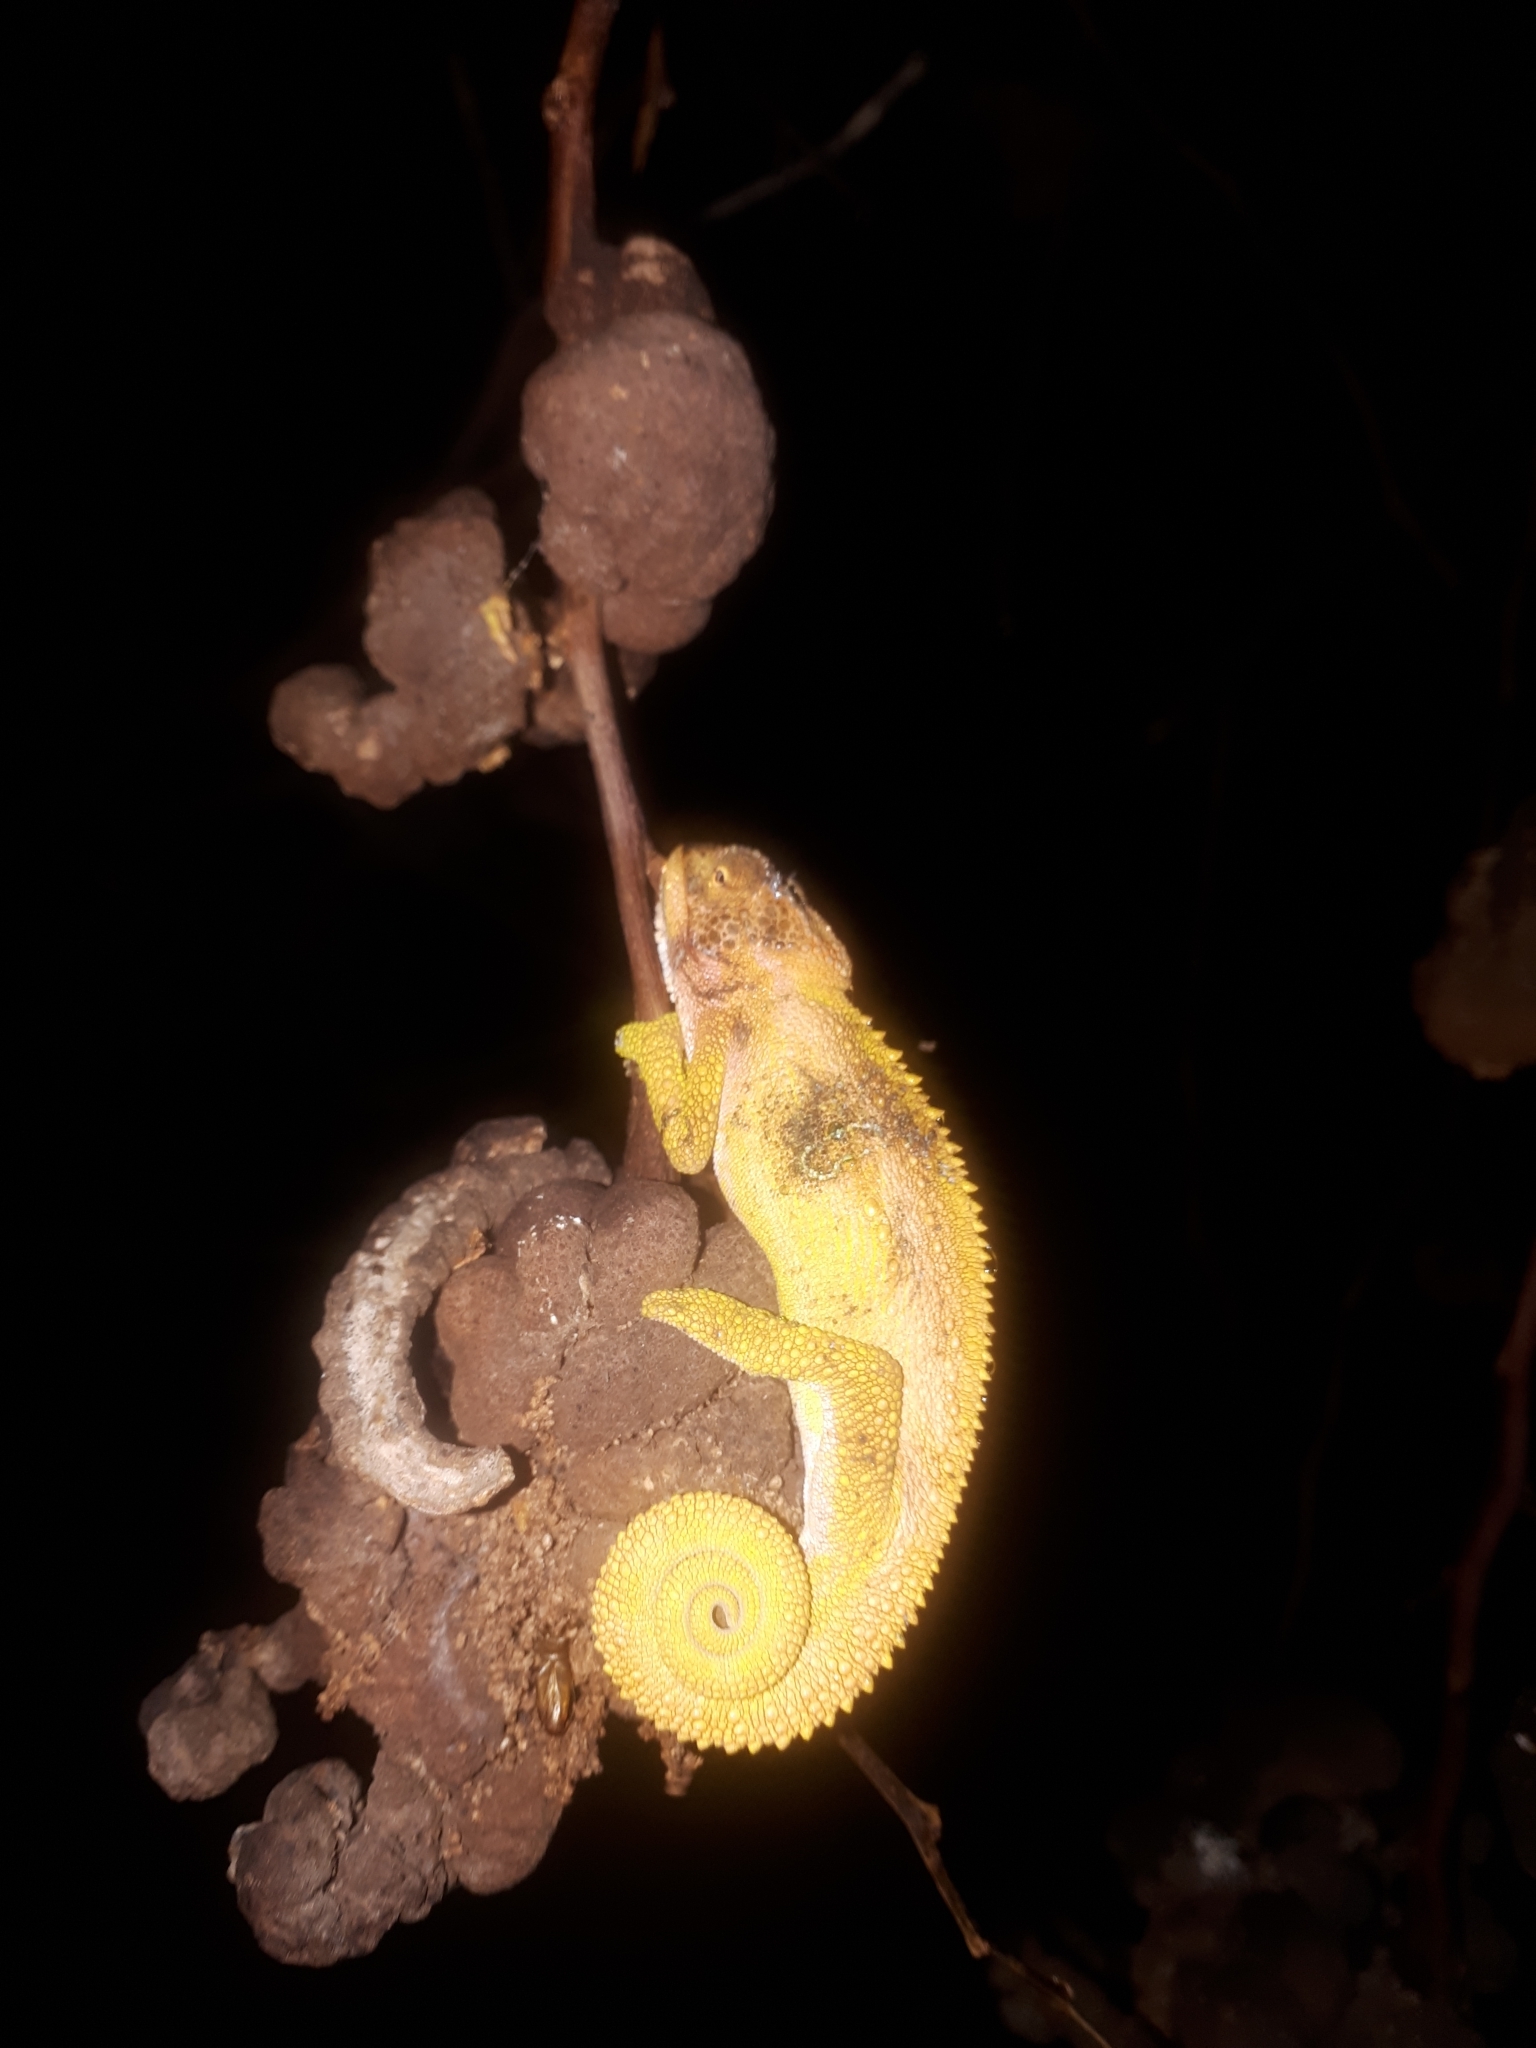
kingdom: Animalia
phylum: Chordata
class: Squamata
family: Chamaeleonidae
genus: Bradypodion
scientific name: Bradypodion pumilum
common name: Cape dwarf chameleon
